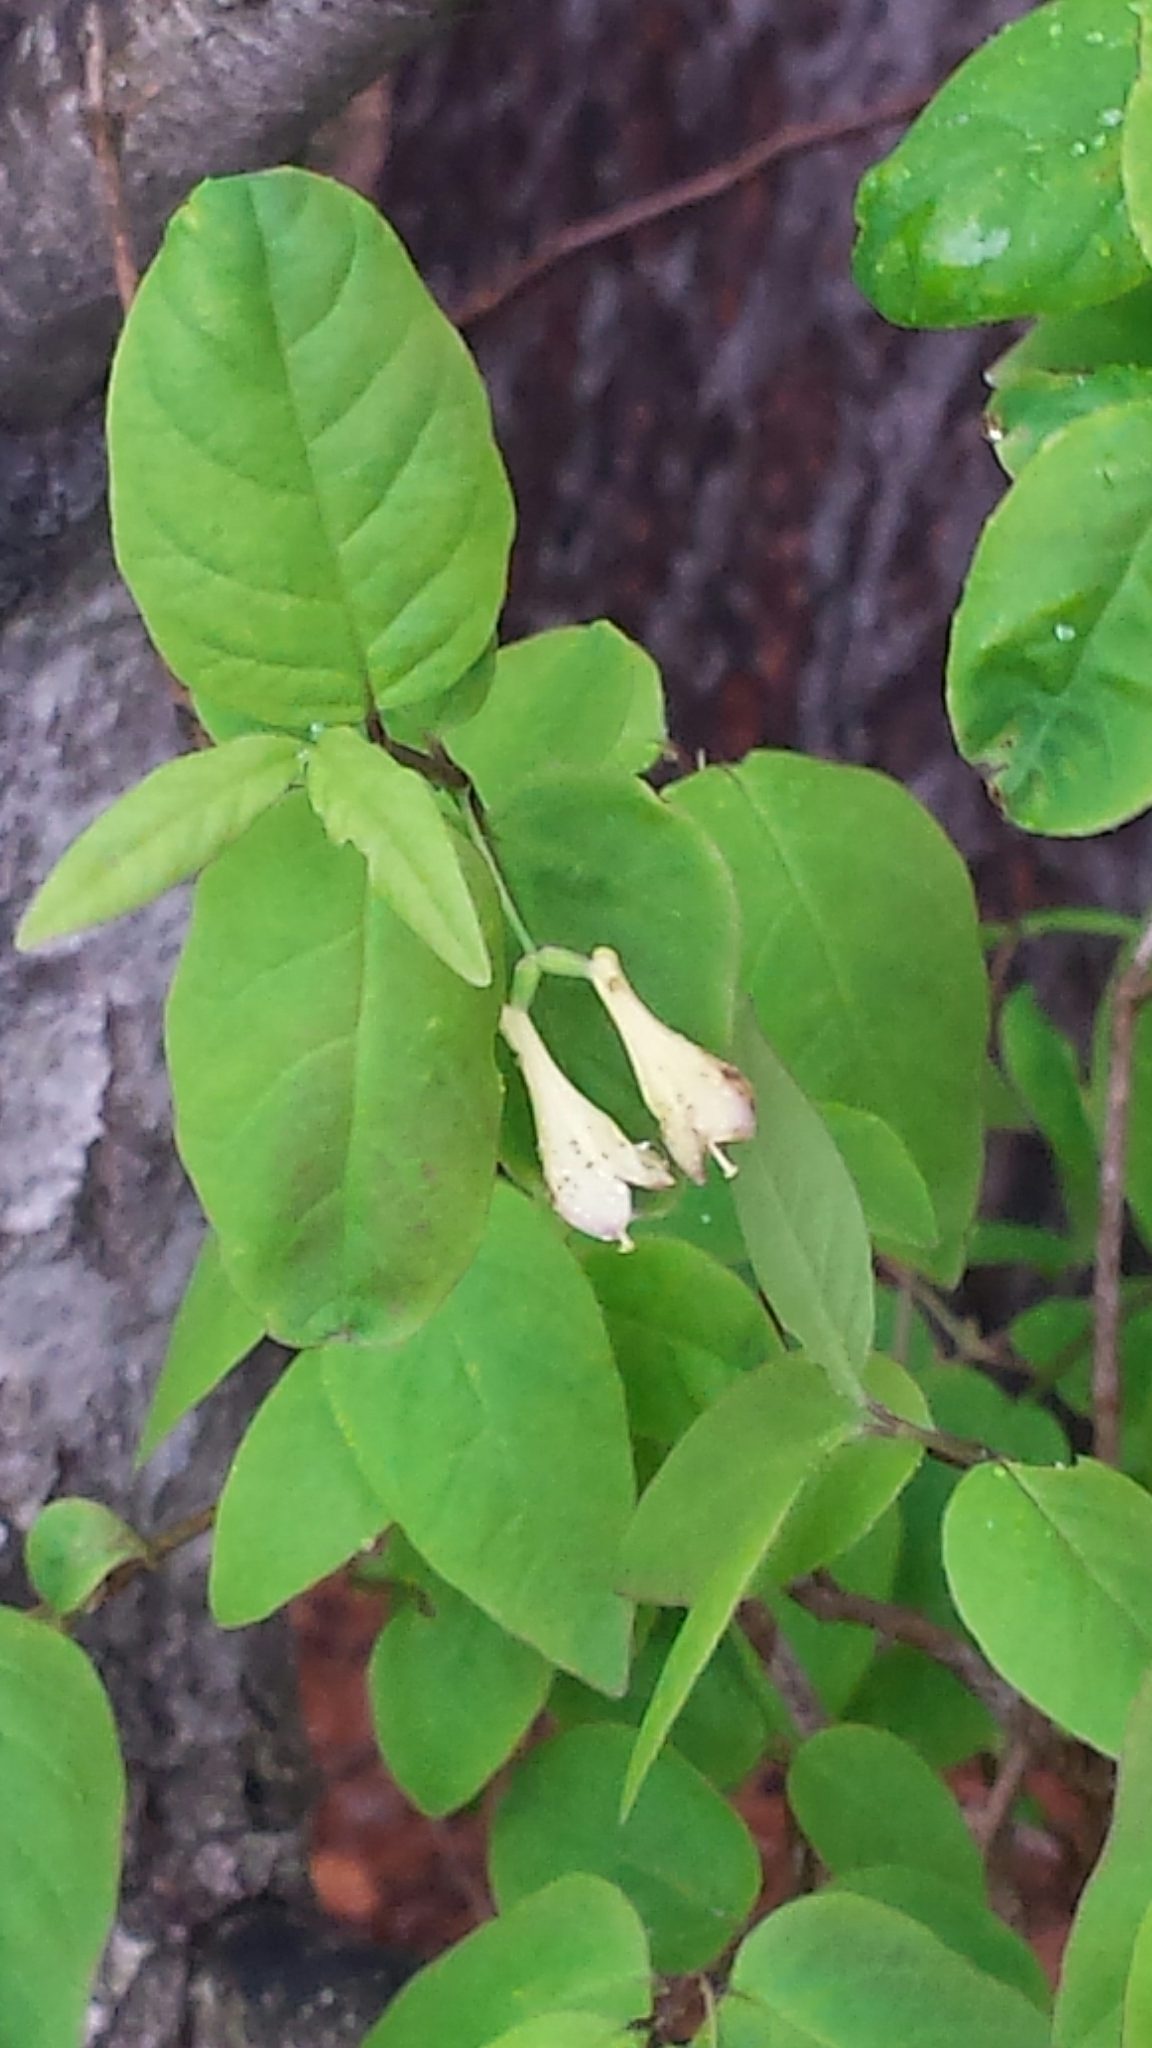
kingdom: Plantae
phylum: Tracheophyta
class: Magnoliopsida
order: Dipsacales
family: Caprifoliaceae
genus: Lonicera
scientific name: Lonicera canadensis
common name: American fly-honeysuckle
